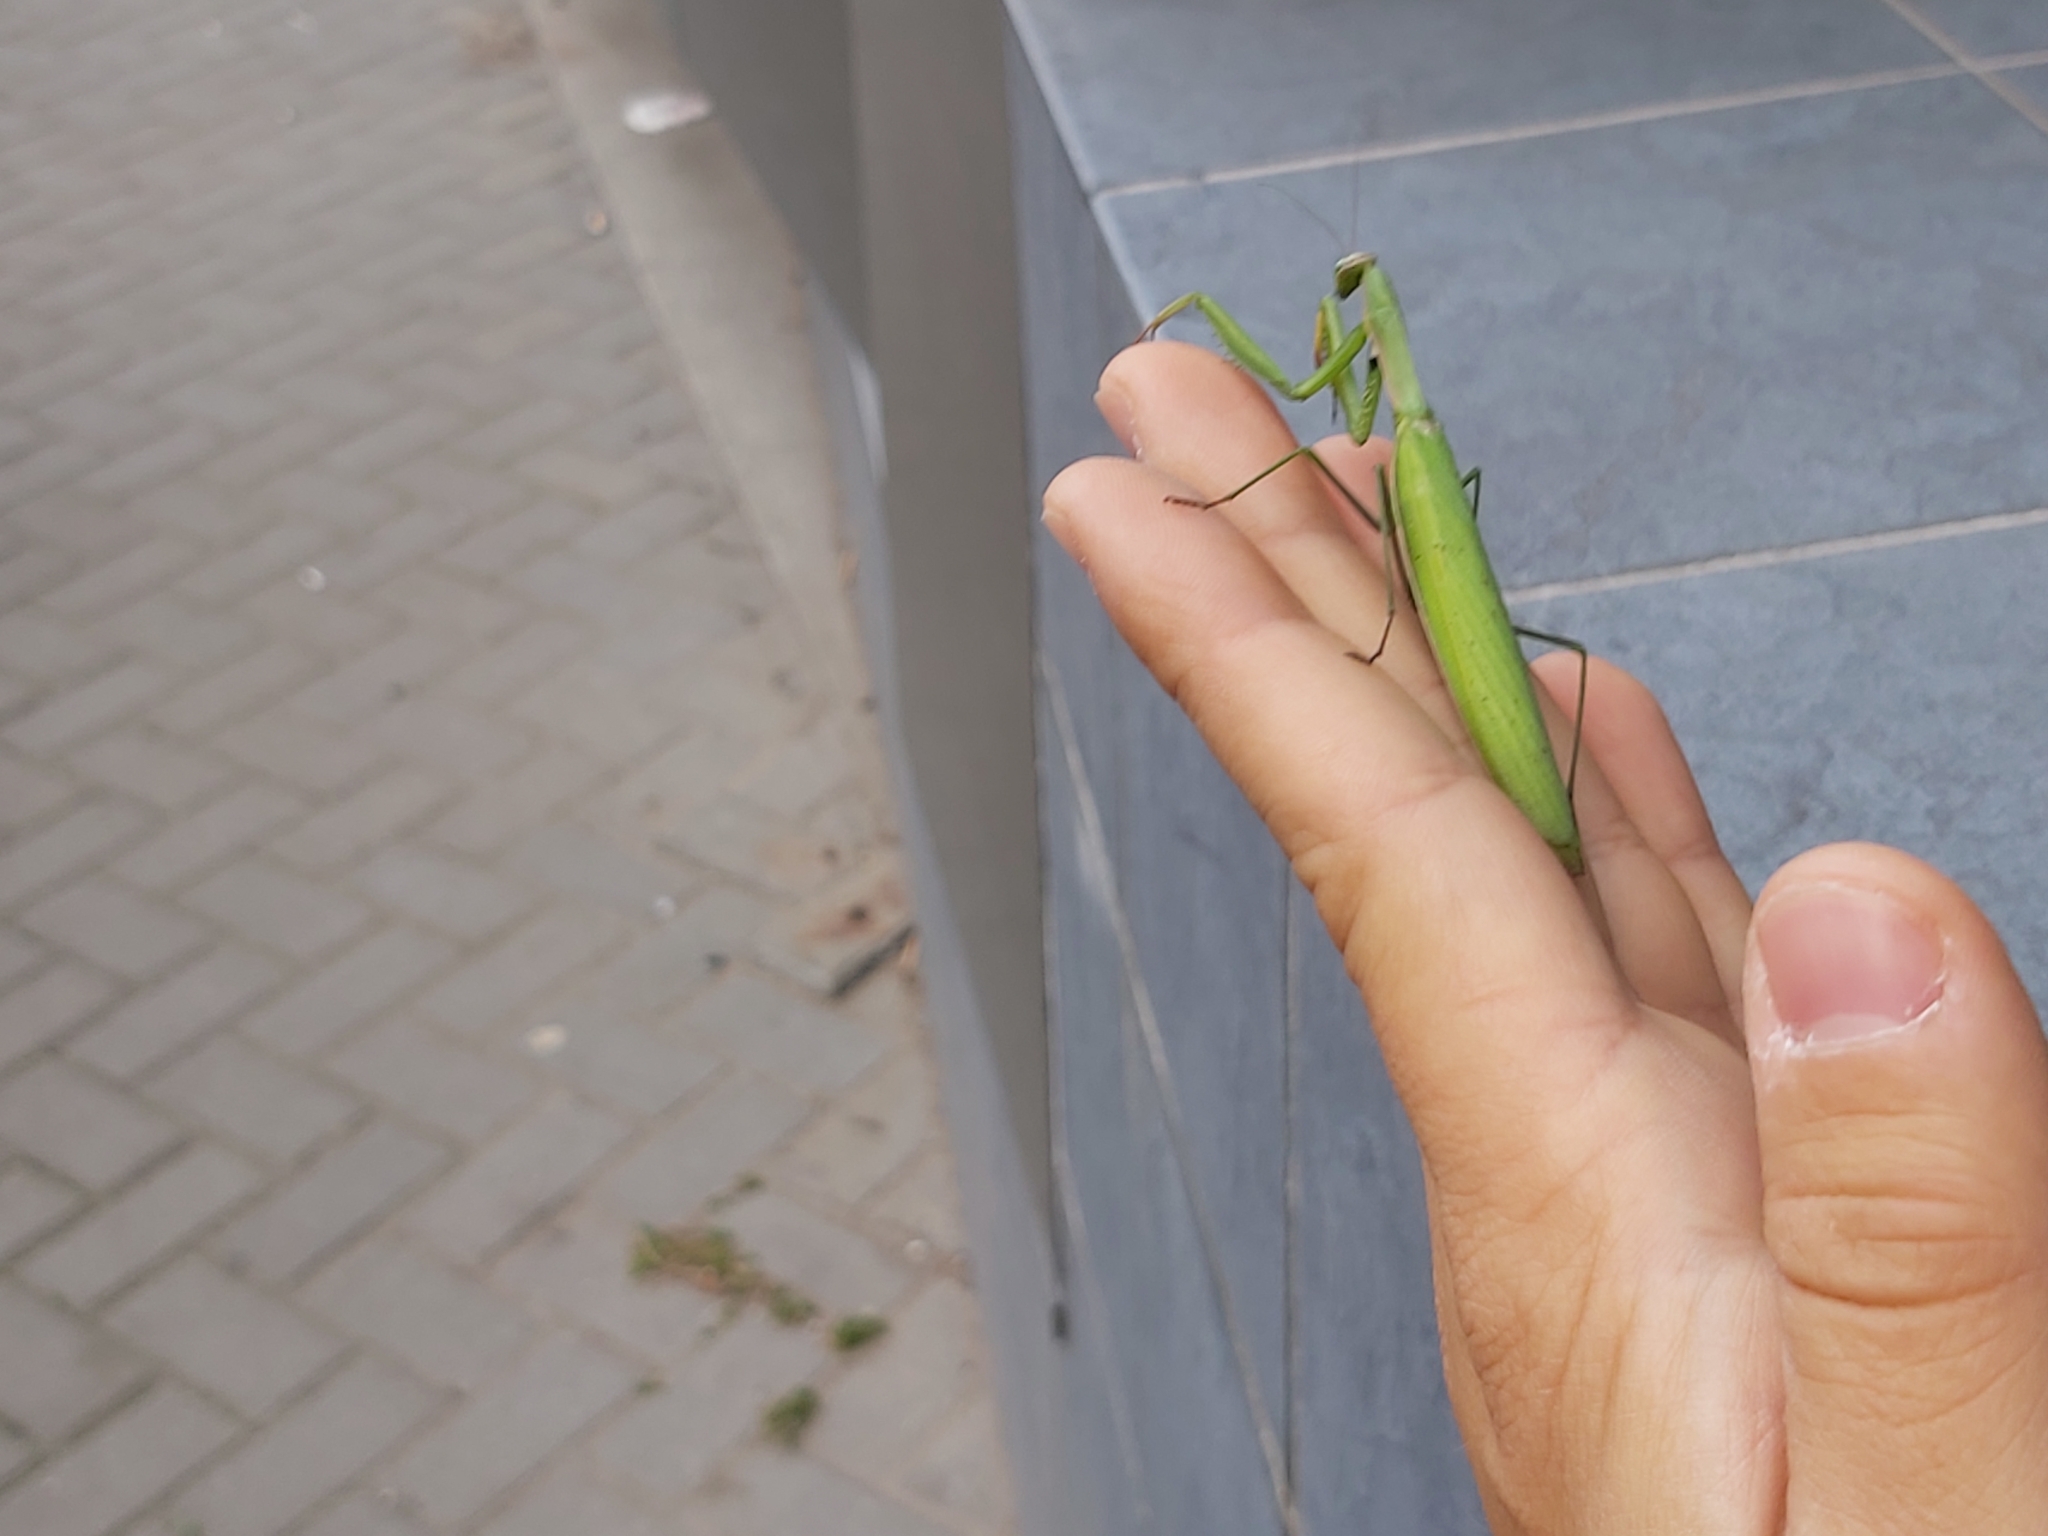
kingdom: Animalia
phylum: Arthropoda
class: Insecta
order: Mantodea
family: Mantidae
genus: Mantis
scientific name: Mantis religiosa
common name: Praying mantis
